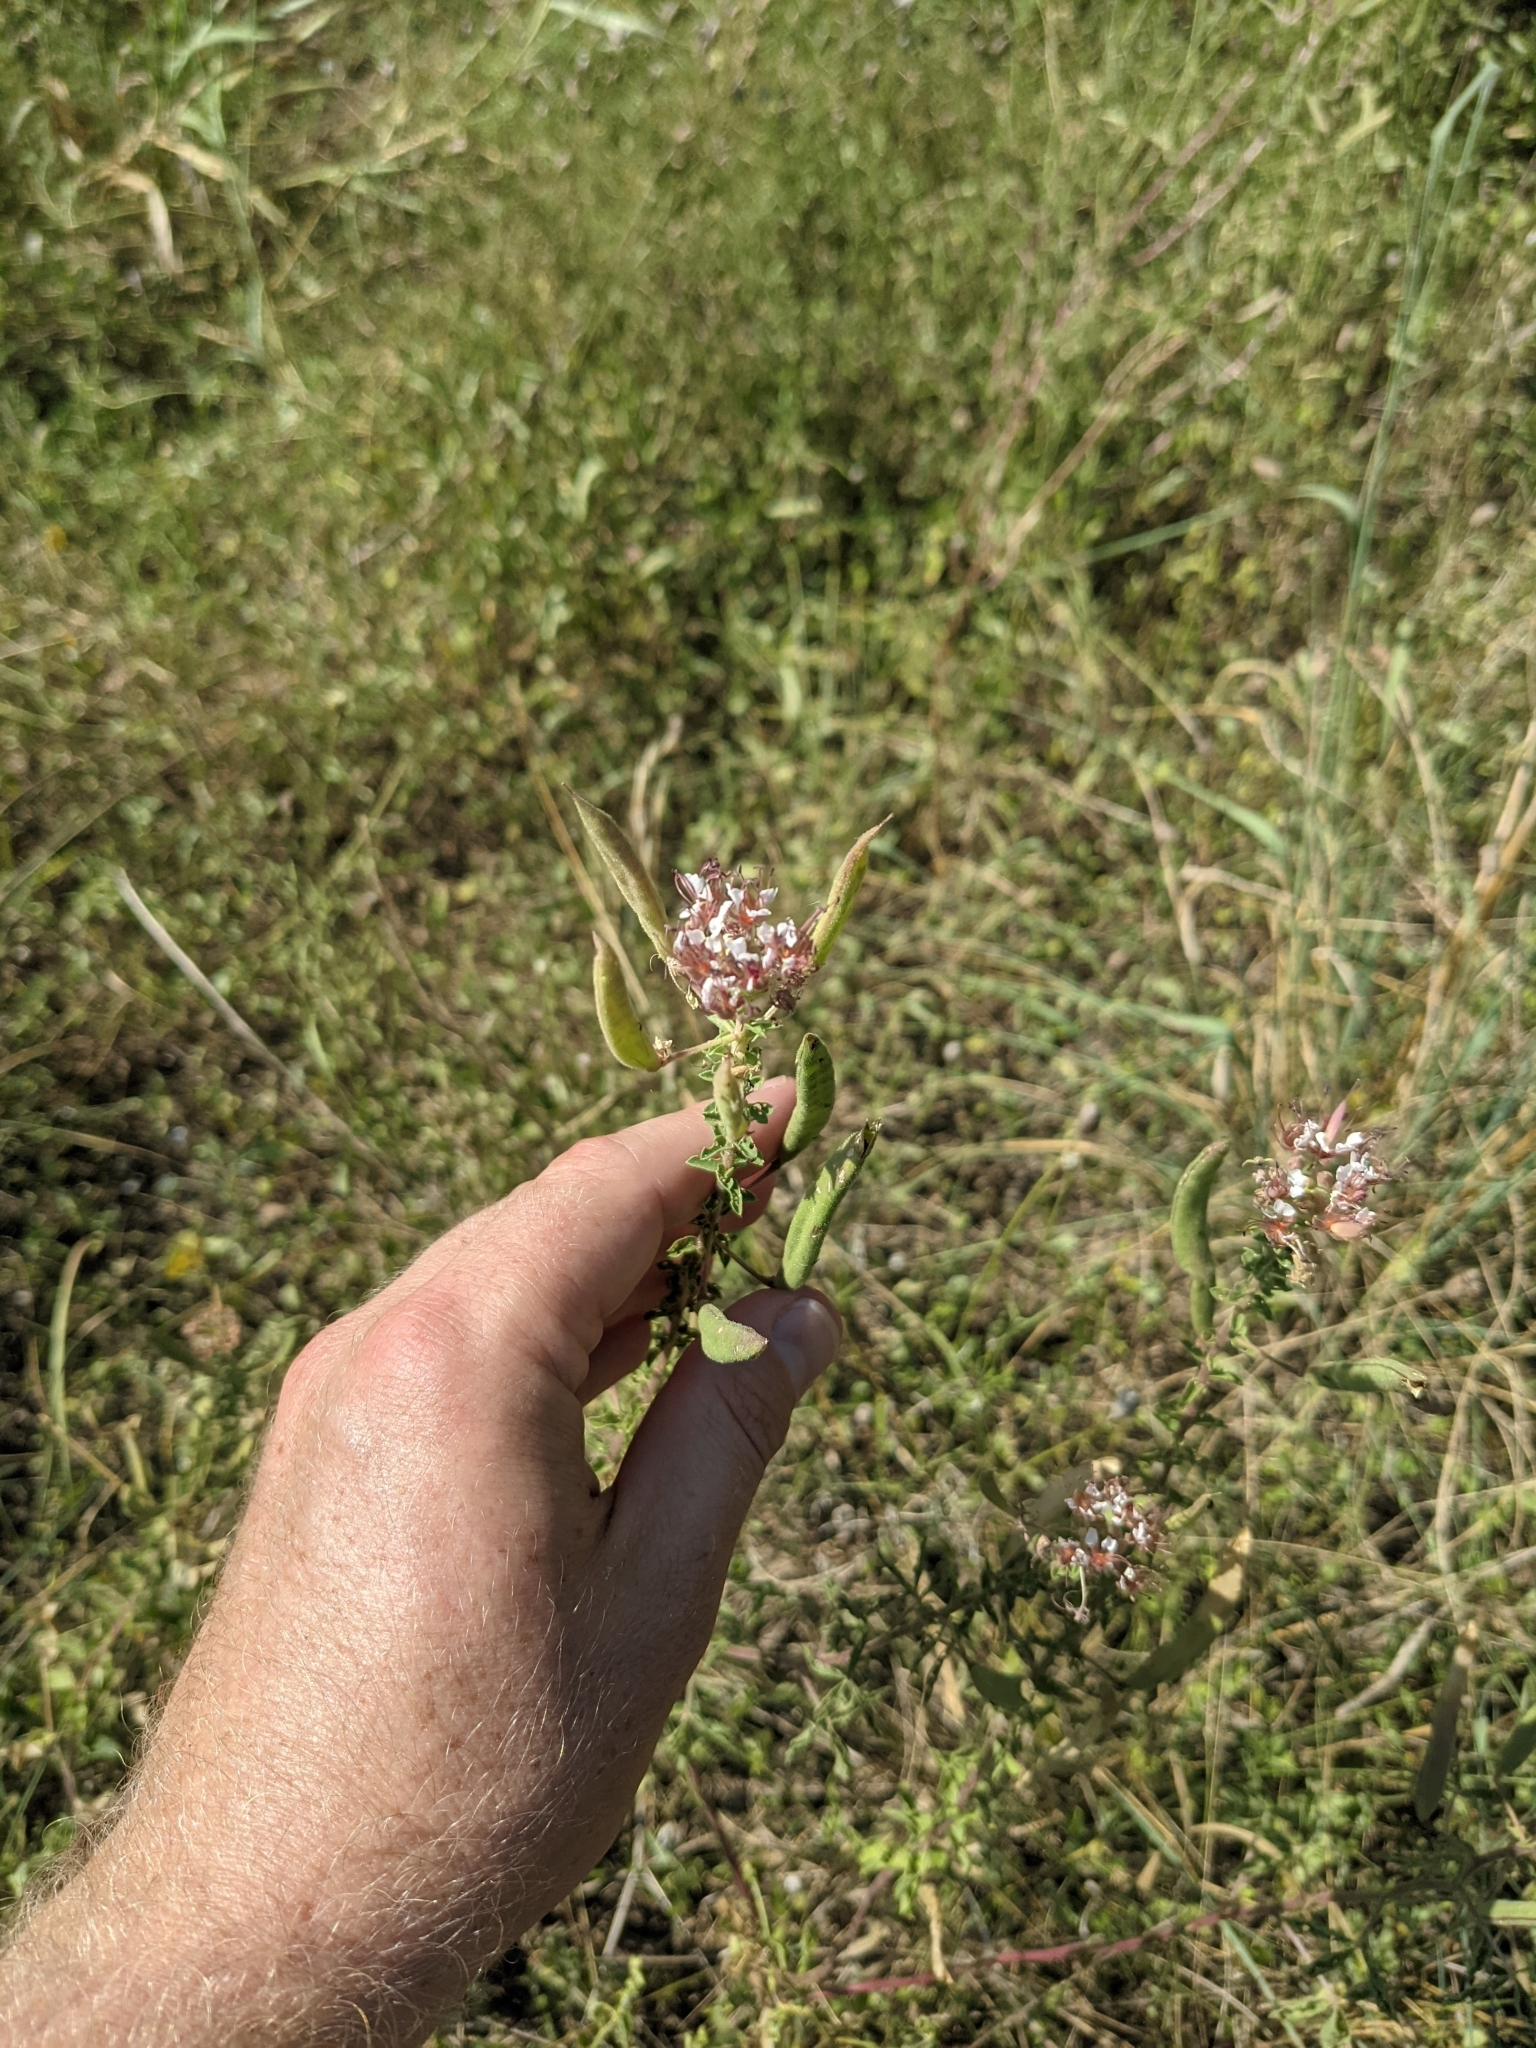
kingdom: Plantae
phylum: Tracheophyta
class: Magnoliopsida
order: Brassicales
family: Cleomaceae
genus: Polanisia
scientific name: Polanisia dodecandra
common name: Clammyweed
